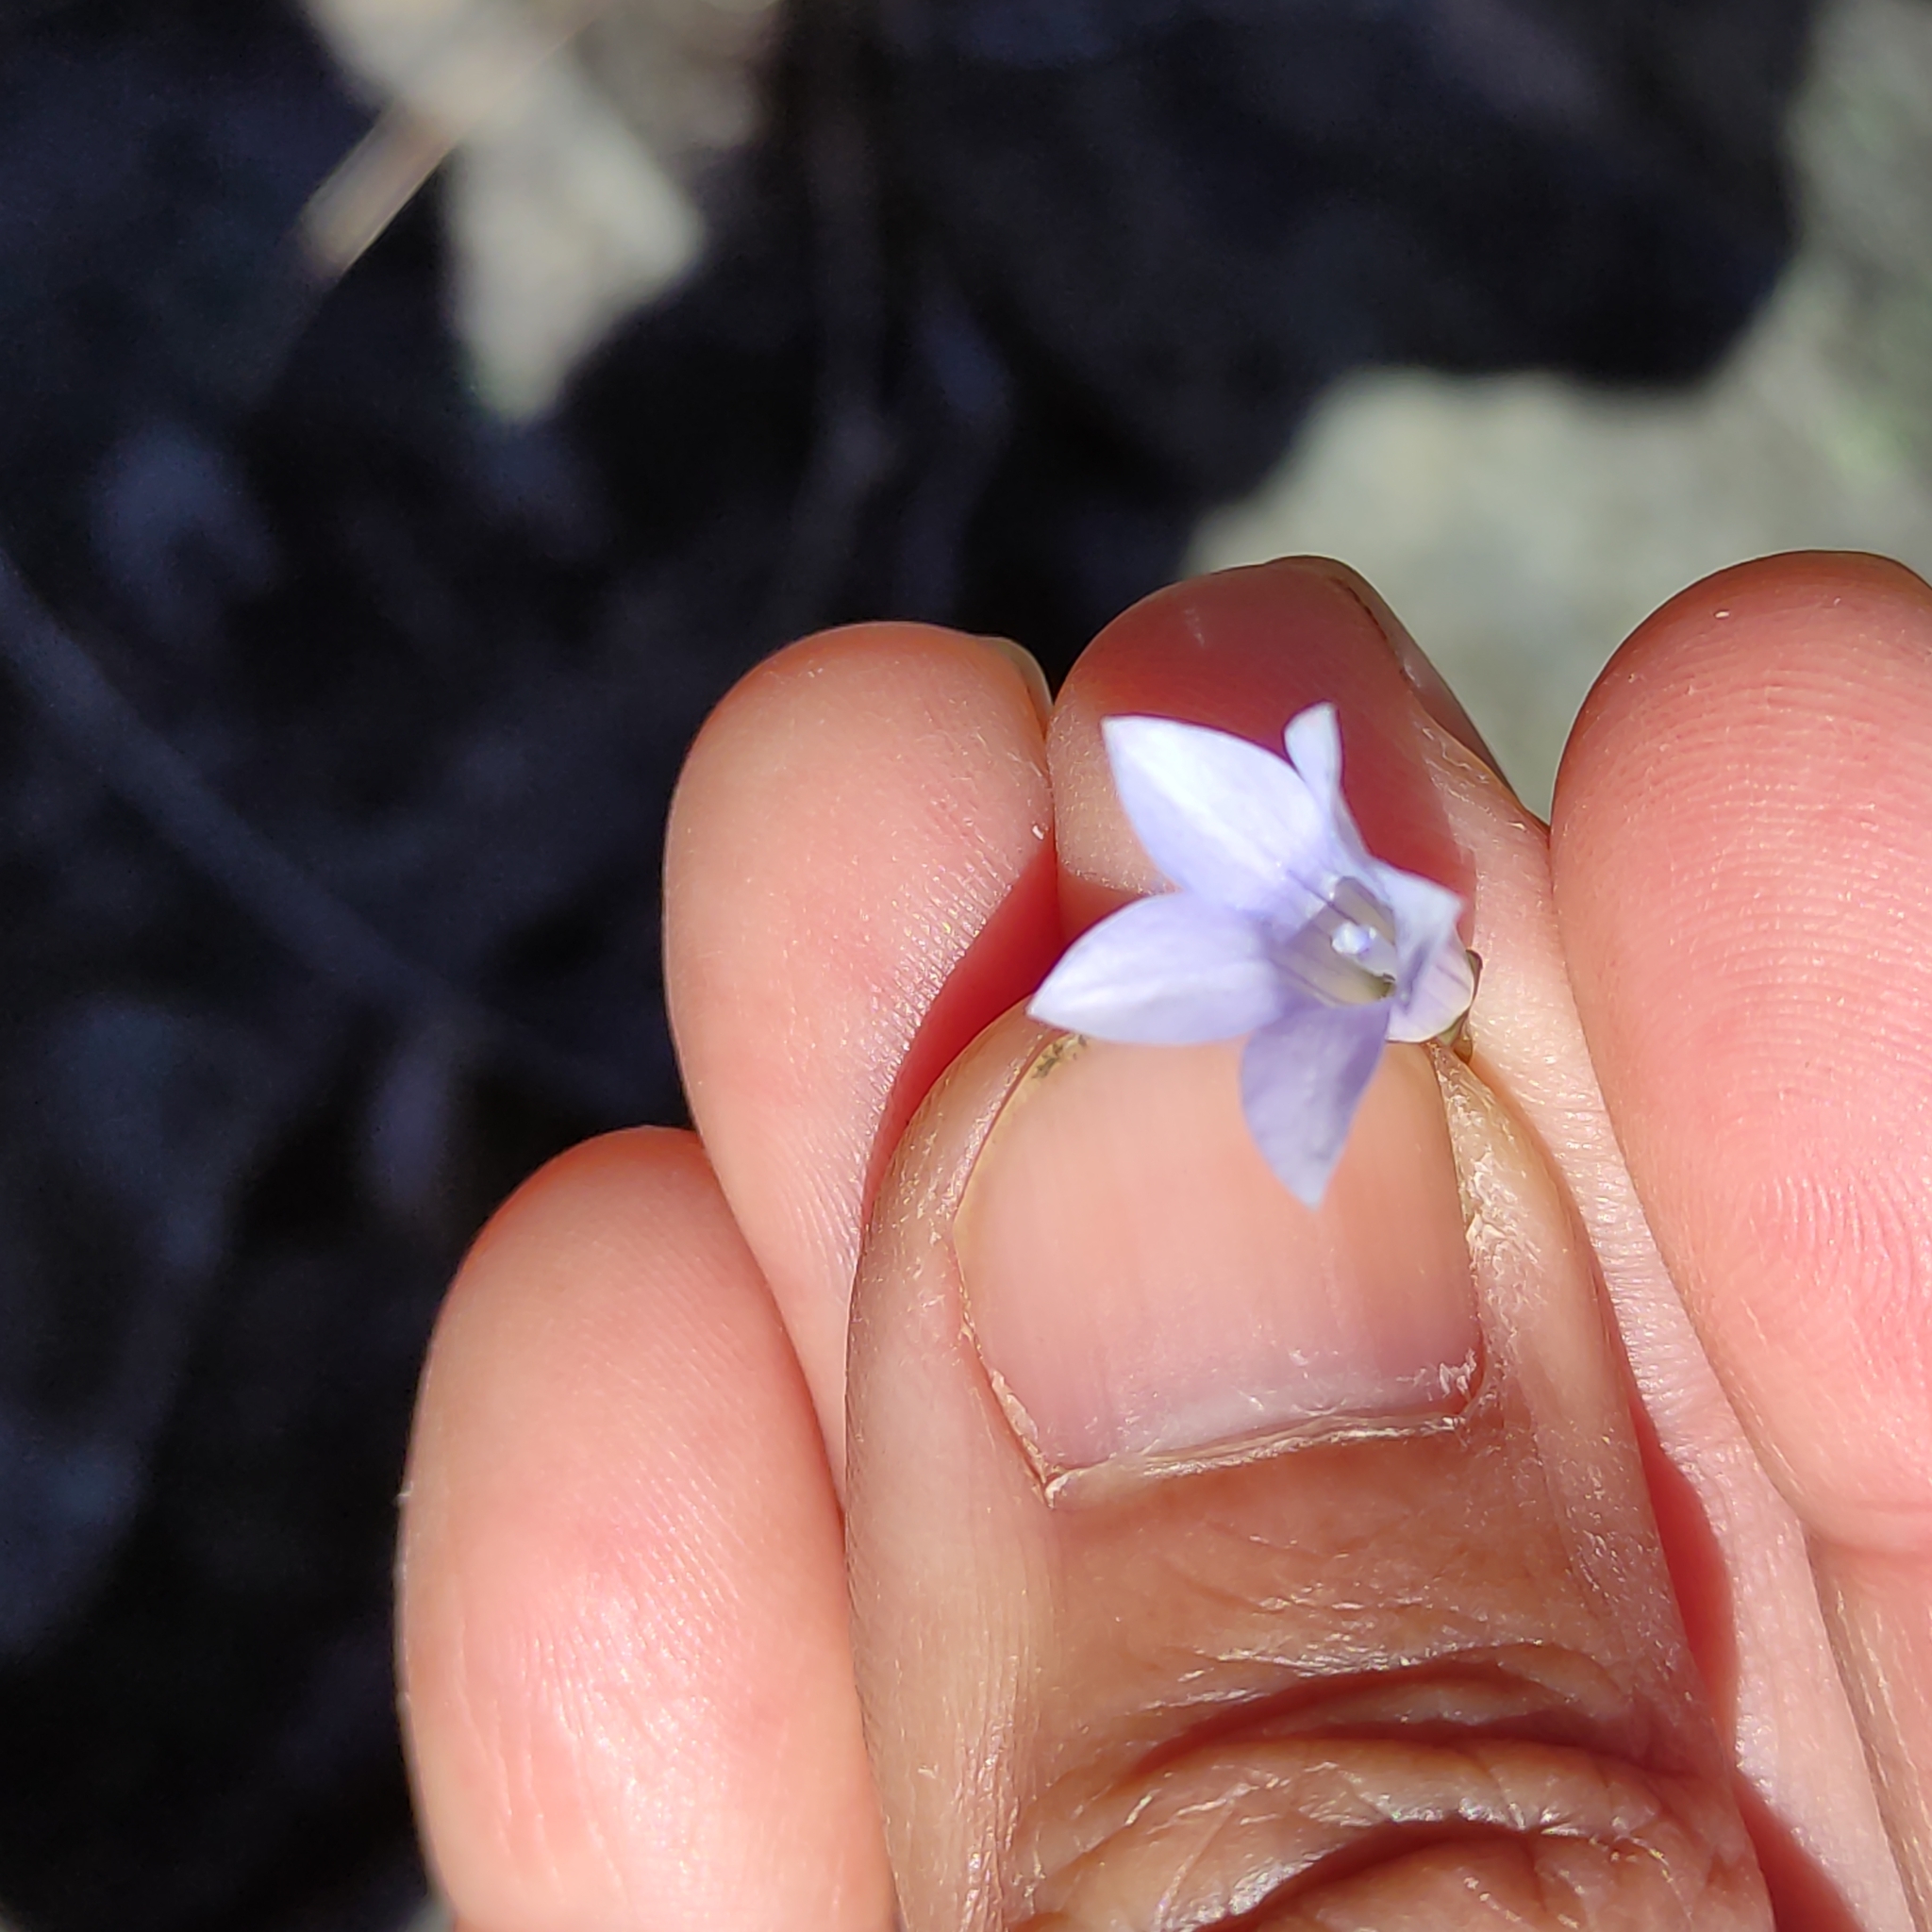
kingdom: Plantae
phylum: Tracheophyta
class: Magnoliopsida
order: Asterales
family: Campanulaceae
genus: Wahlenbergia
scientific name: Wahlenbergia albomarginata
